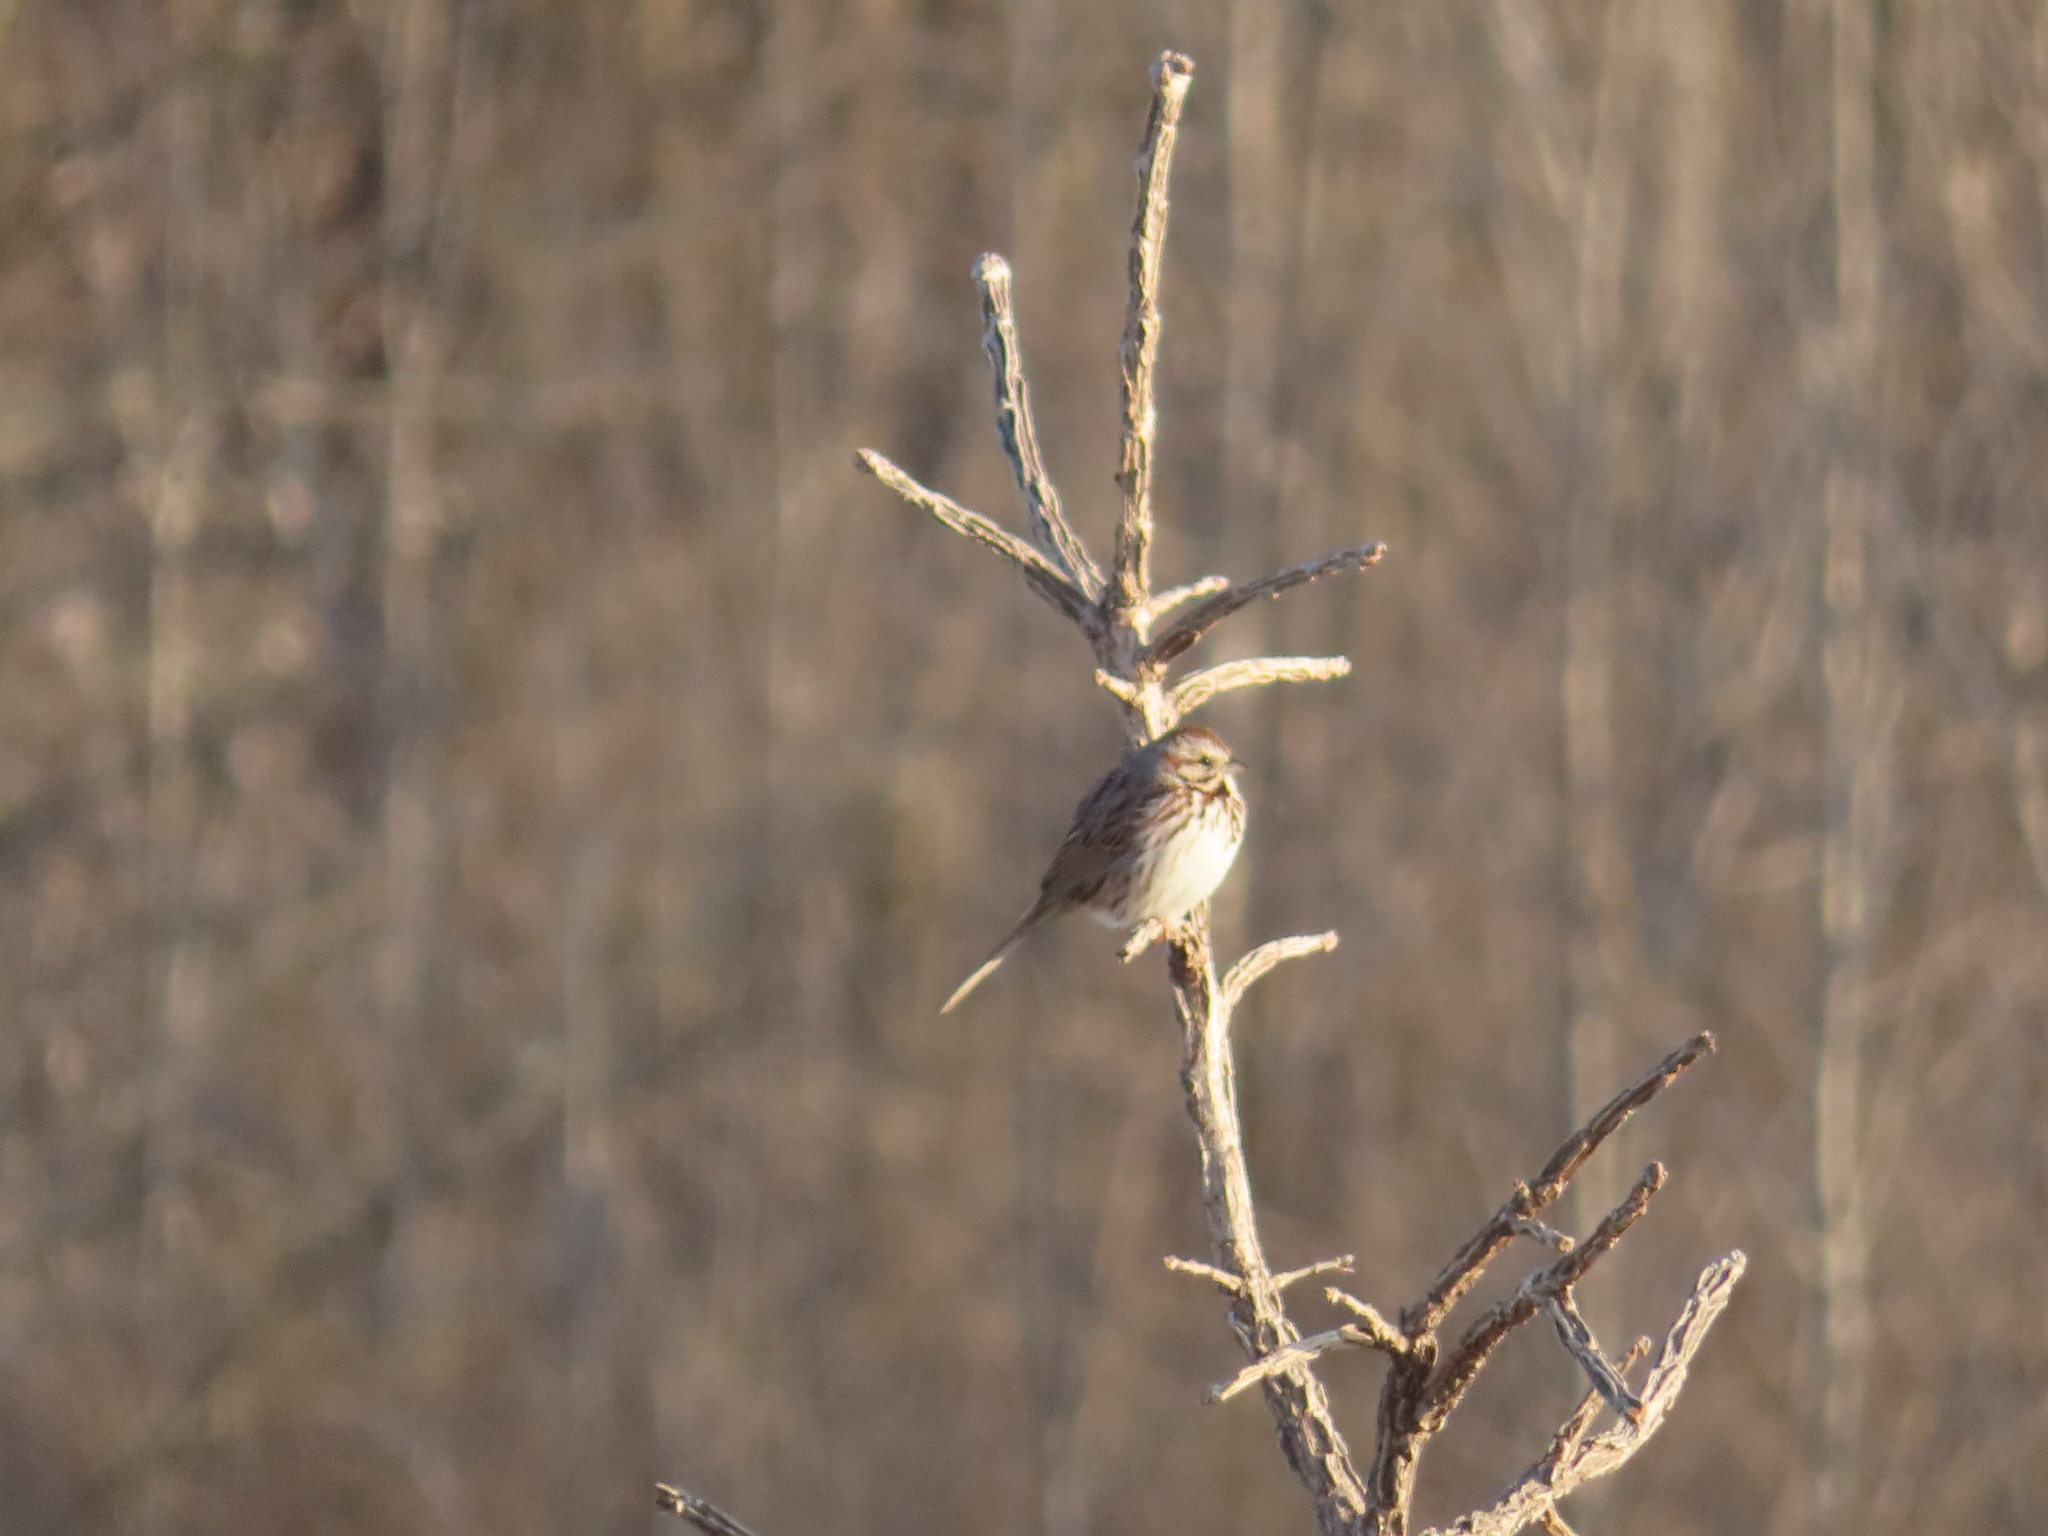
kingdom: Animalia
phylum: Chordata
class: Aves
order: Passeriformes
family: Passerellidae
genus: Melospiza
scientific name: Melospiza melodia
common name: Song sparrow
